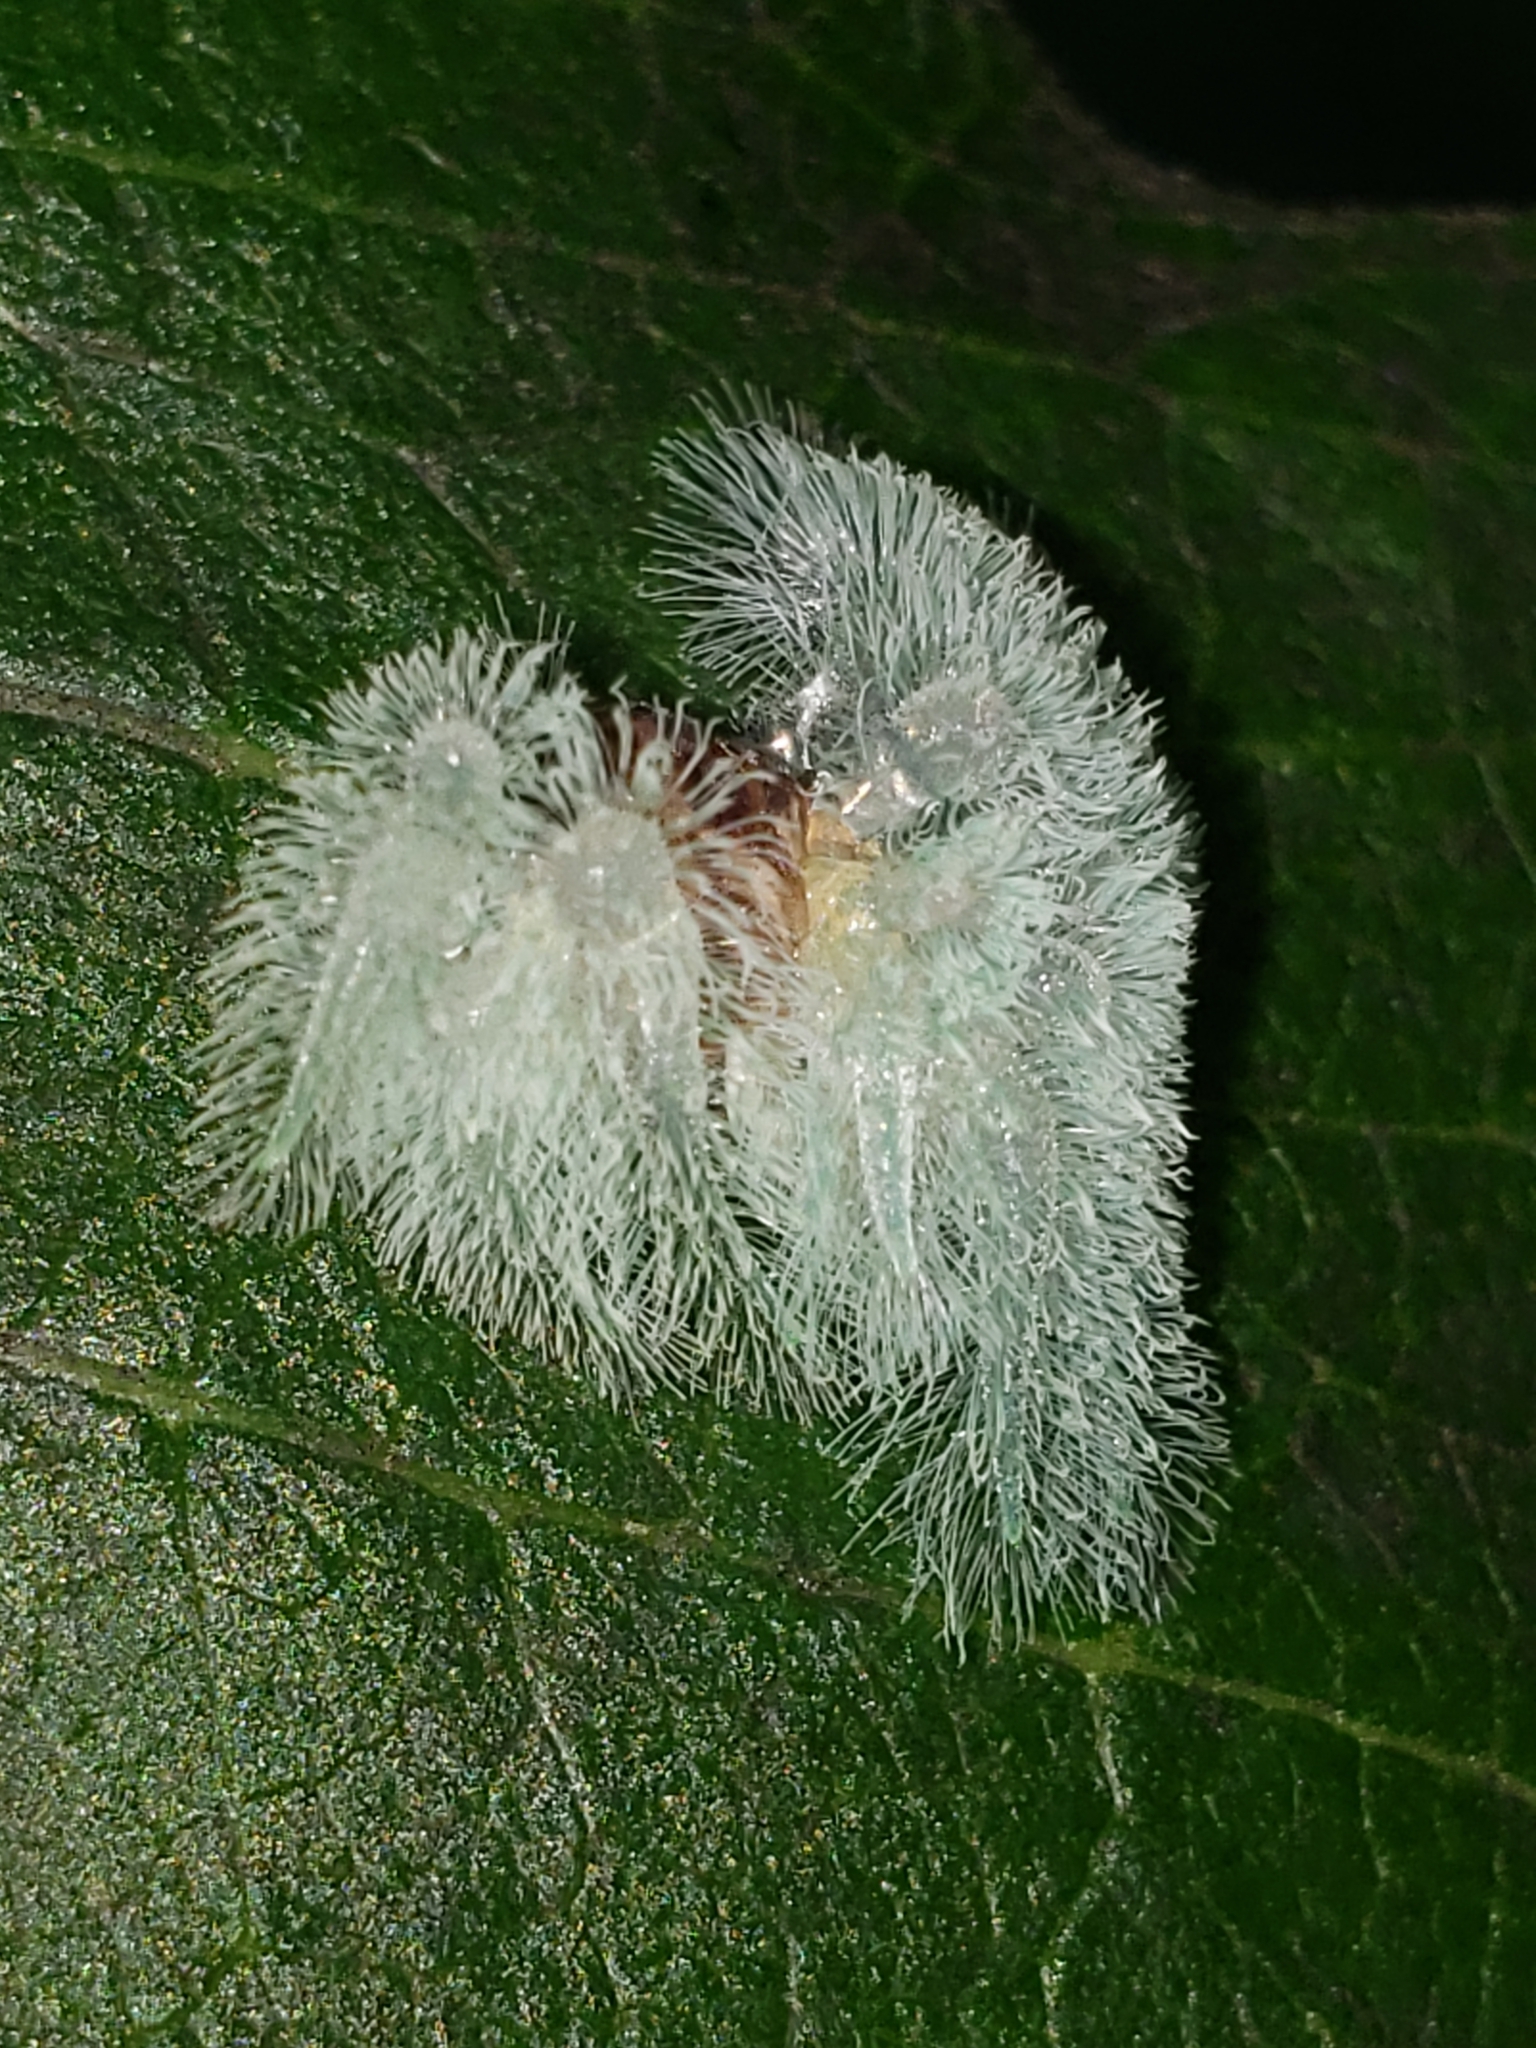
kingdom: Animalia
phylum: Arthropoda
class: Insecta
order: Lepidoptera
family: Limacodidae
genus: Isochaetes
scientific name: Isochaetes beutenmuelleri
